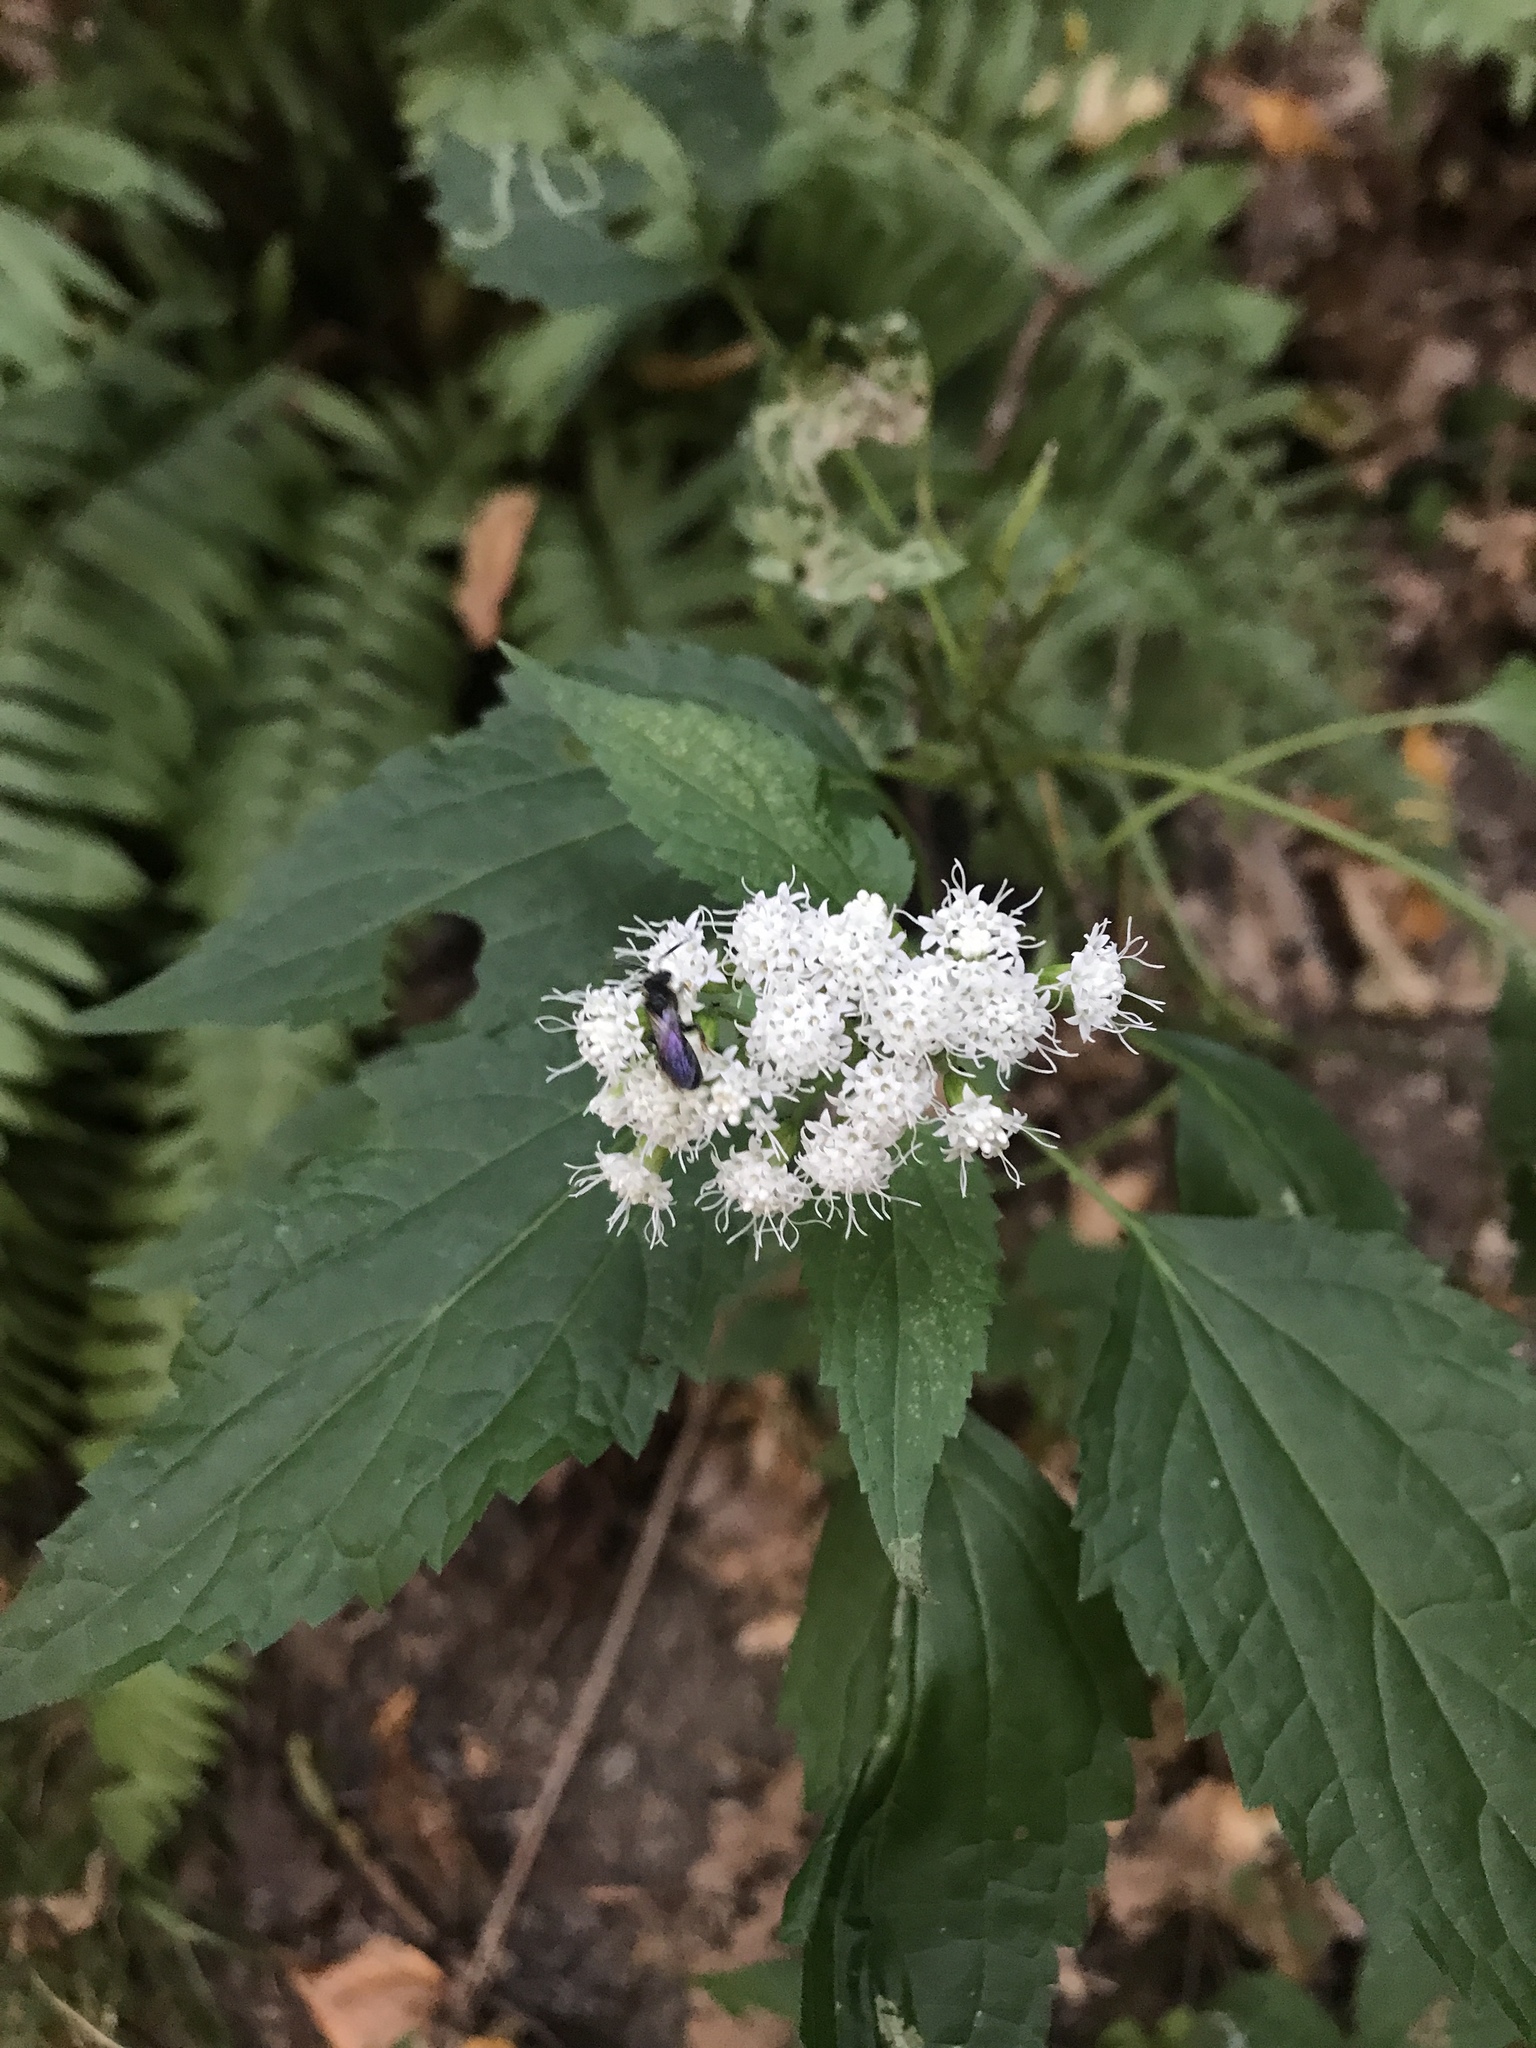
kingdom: Plantae
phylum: Tracheophyta
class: Magnoliopsida
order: Asterales
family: Asteraceae
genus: Ageratina
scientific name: Ageratina altissima
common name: White snakeroot
